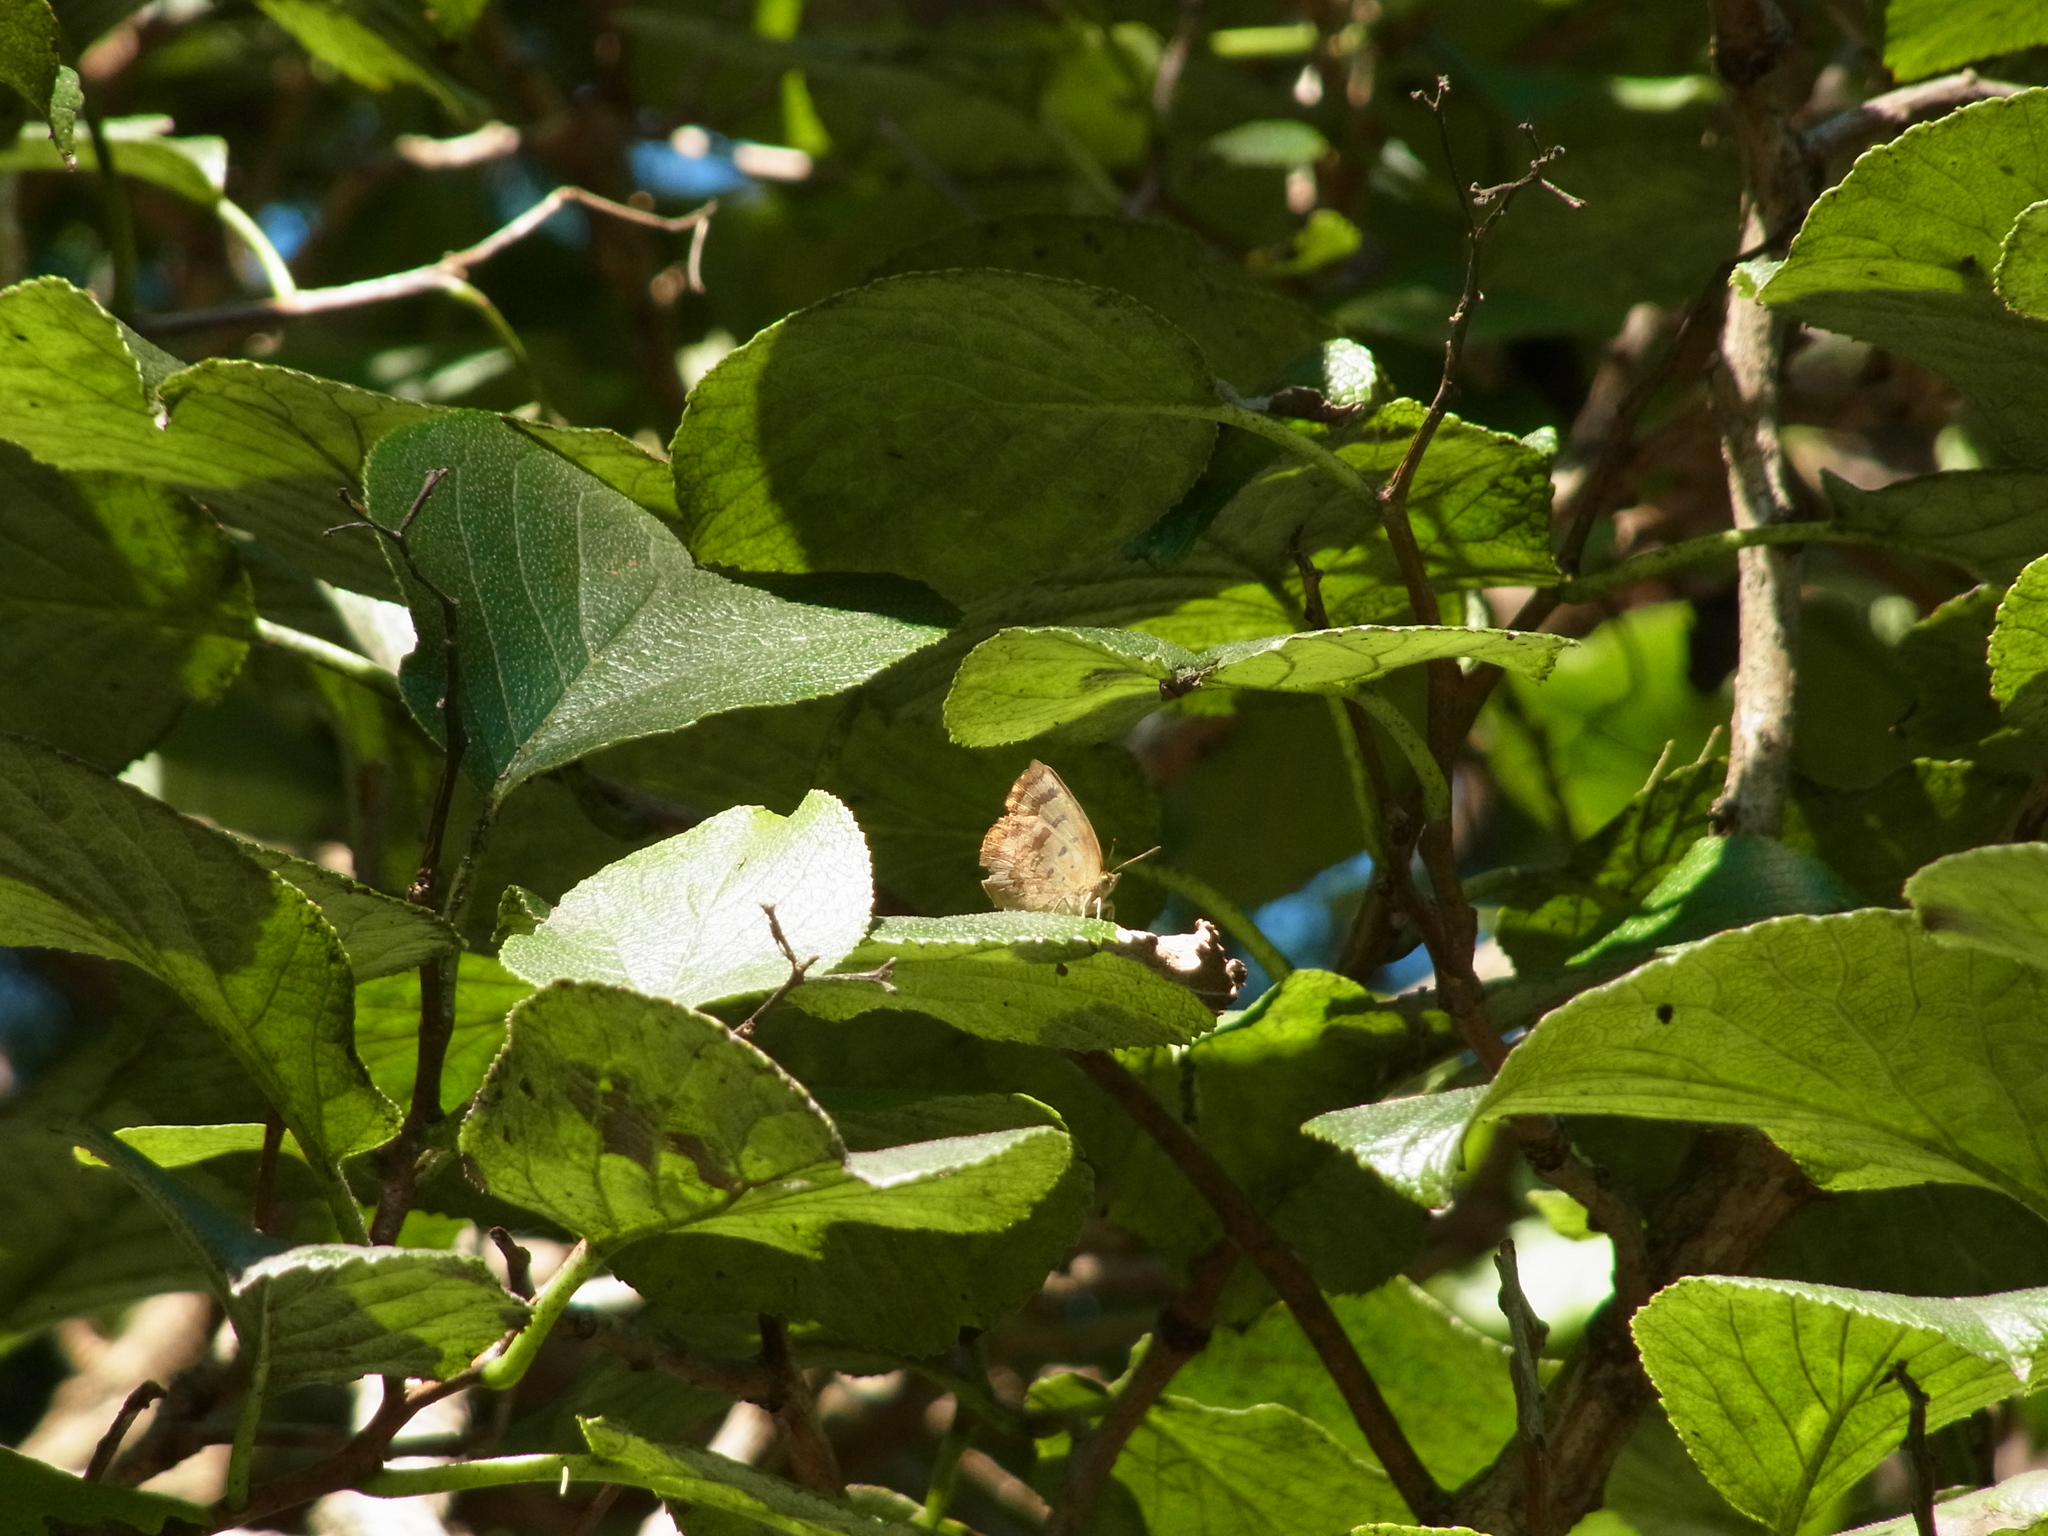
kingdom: Animalia
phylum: Arthropoda
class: Insecta
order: Lepidoptera
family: Lycaenidae
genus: Arhopala
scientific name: Arhopala japonica
